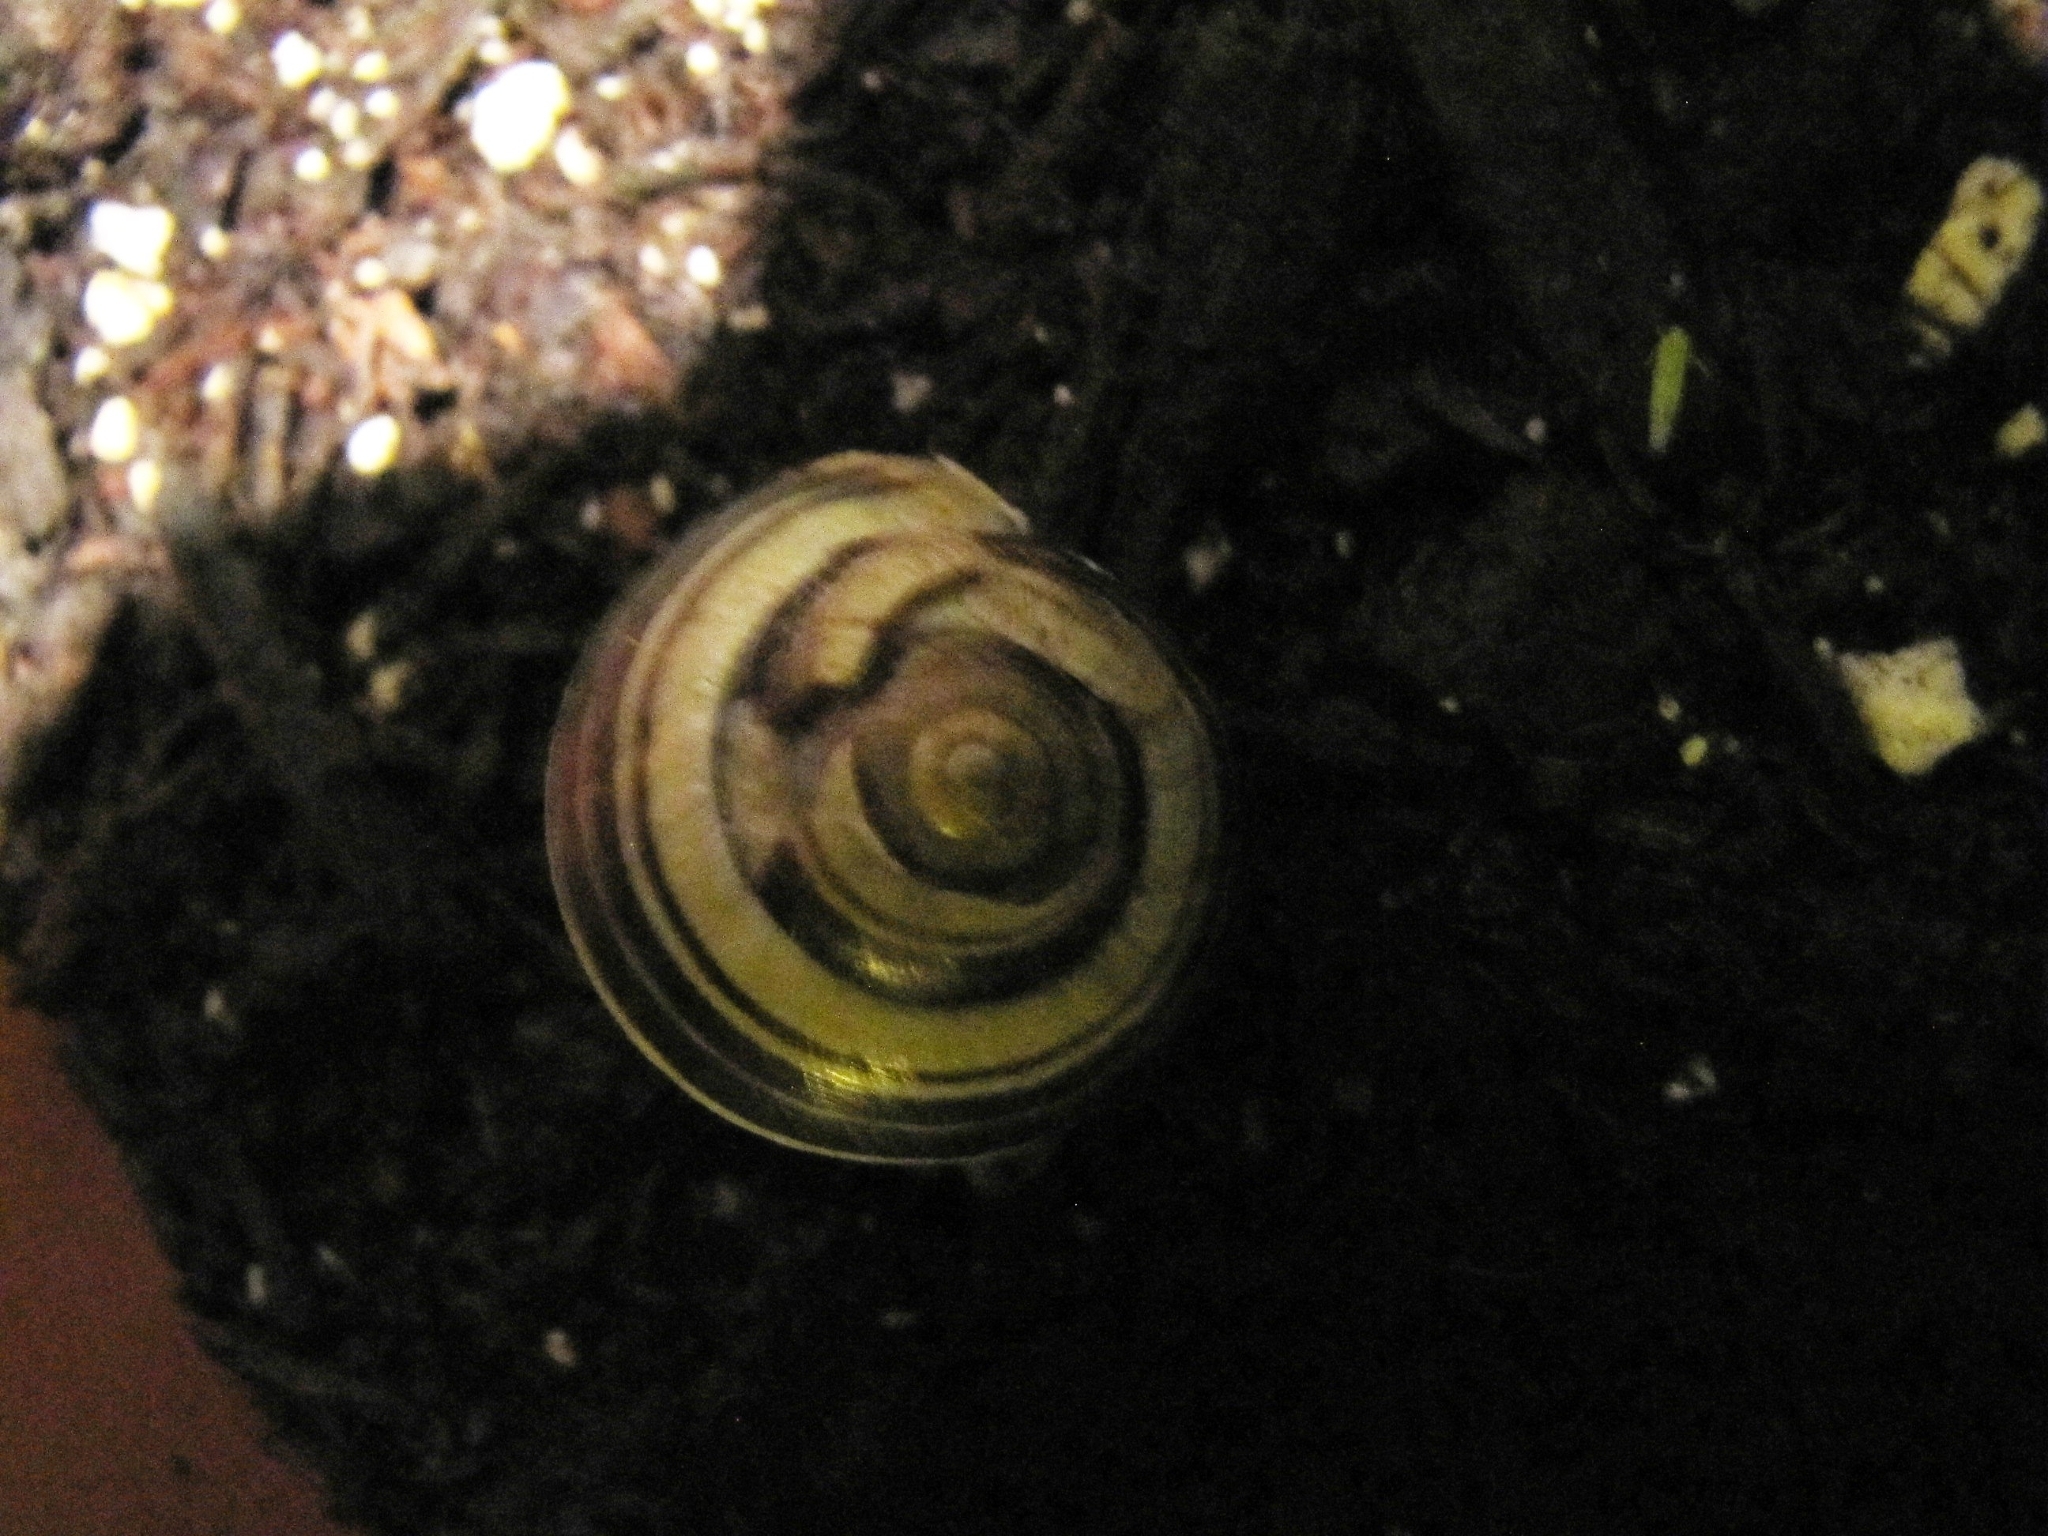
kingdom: Animalia
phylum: Mollusca
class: Gastropoda
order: Stylommatophora
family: Helicidae
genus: Cepaea
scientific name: Cepaea nemoralis
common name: Grovesnail
